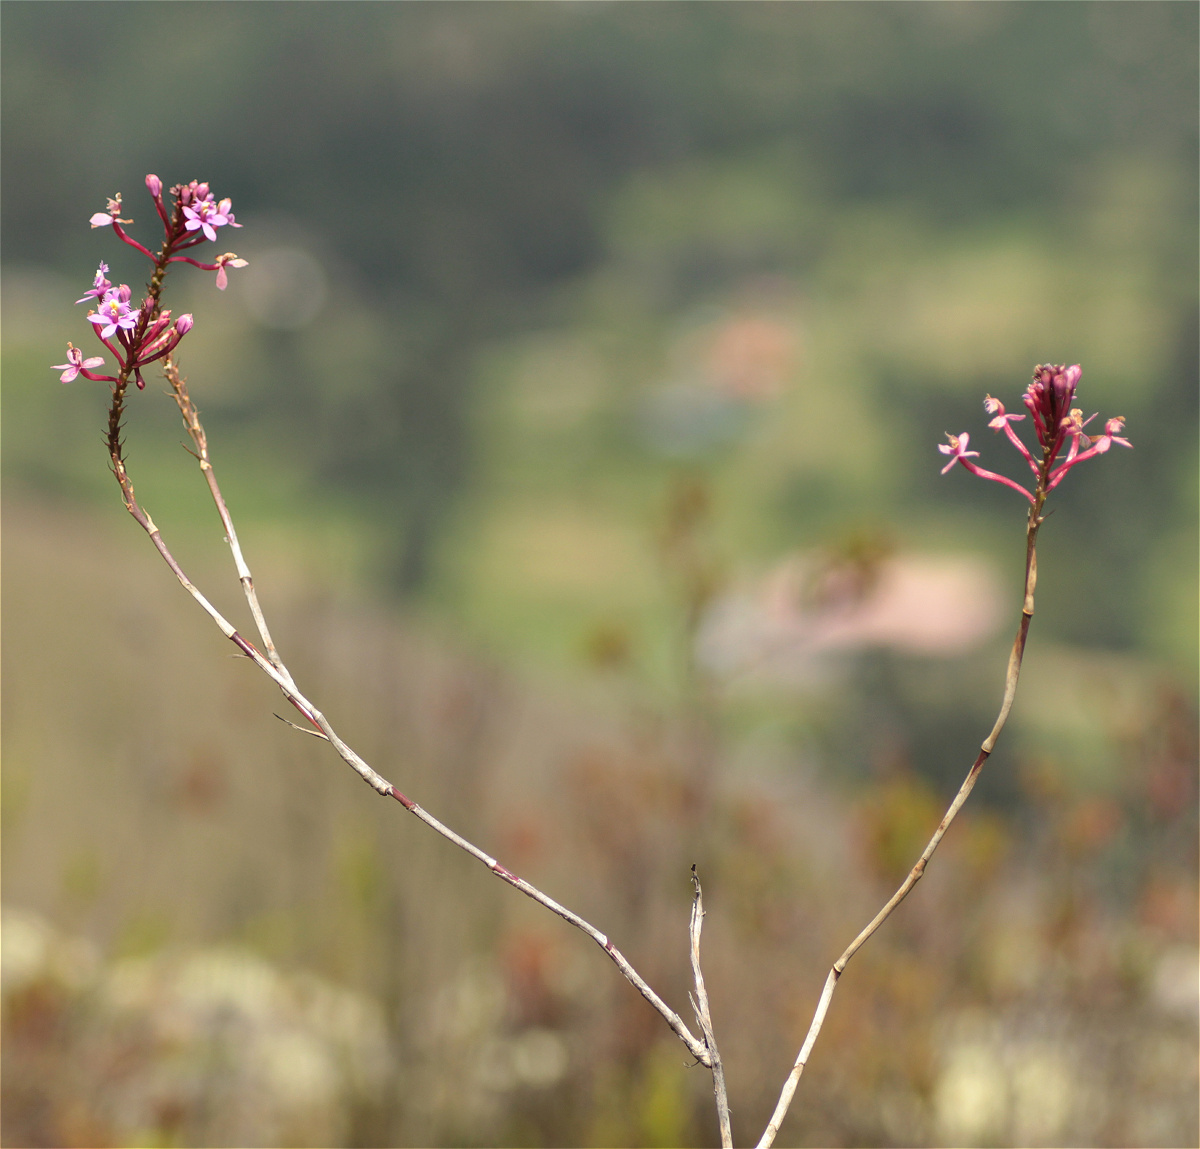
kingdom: Plantae
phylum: Tracheophyta
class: Liliopsida
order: Asparagales
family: Orchidaceae
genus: Epidendrum
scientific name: Epidendrum arachnoglossum
